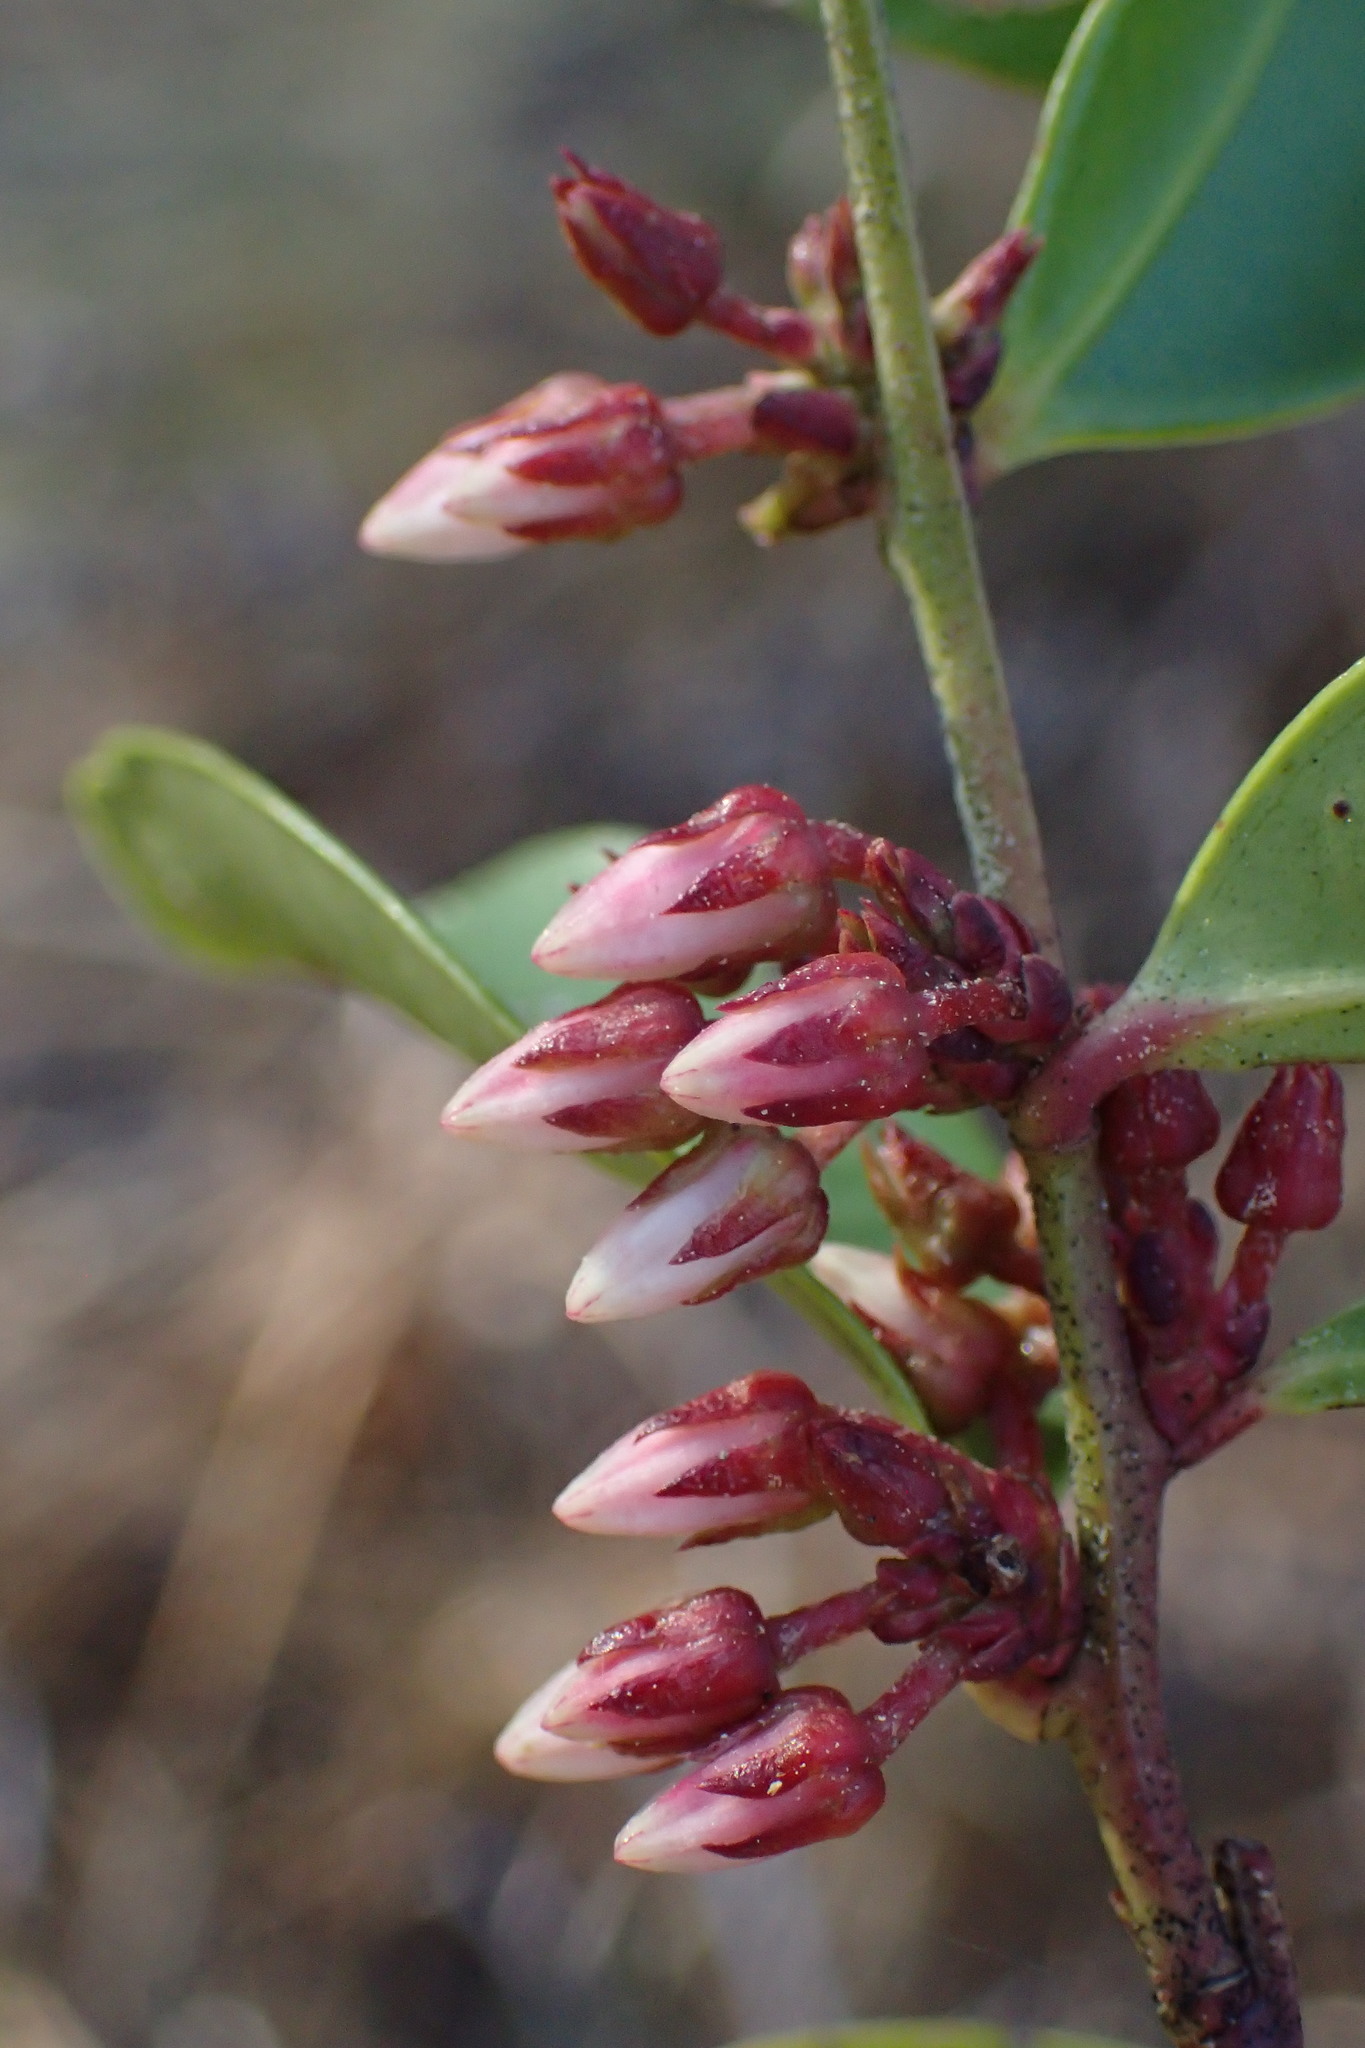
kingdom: Plantae
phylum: Tracheophyta
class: Magnoliopsida
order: Ericales
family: Ericaceae
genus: Lyonia
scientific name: Lyonia lucida
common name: Fetterbush
